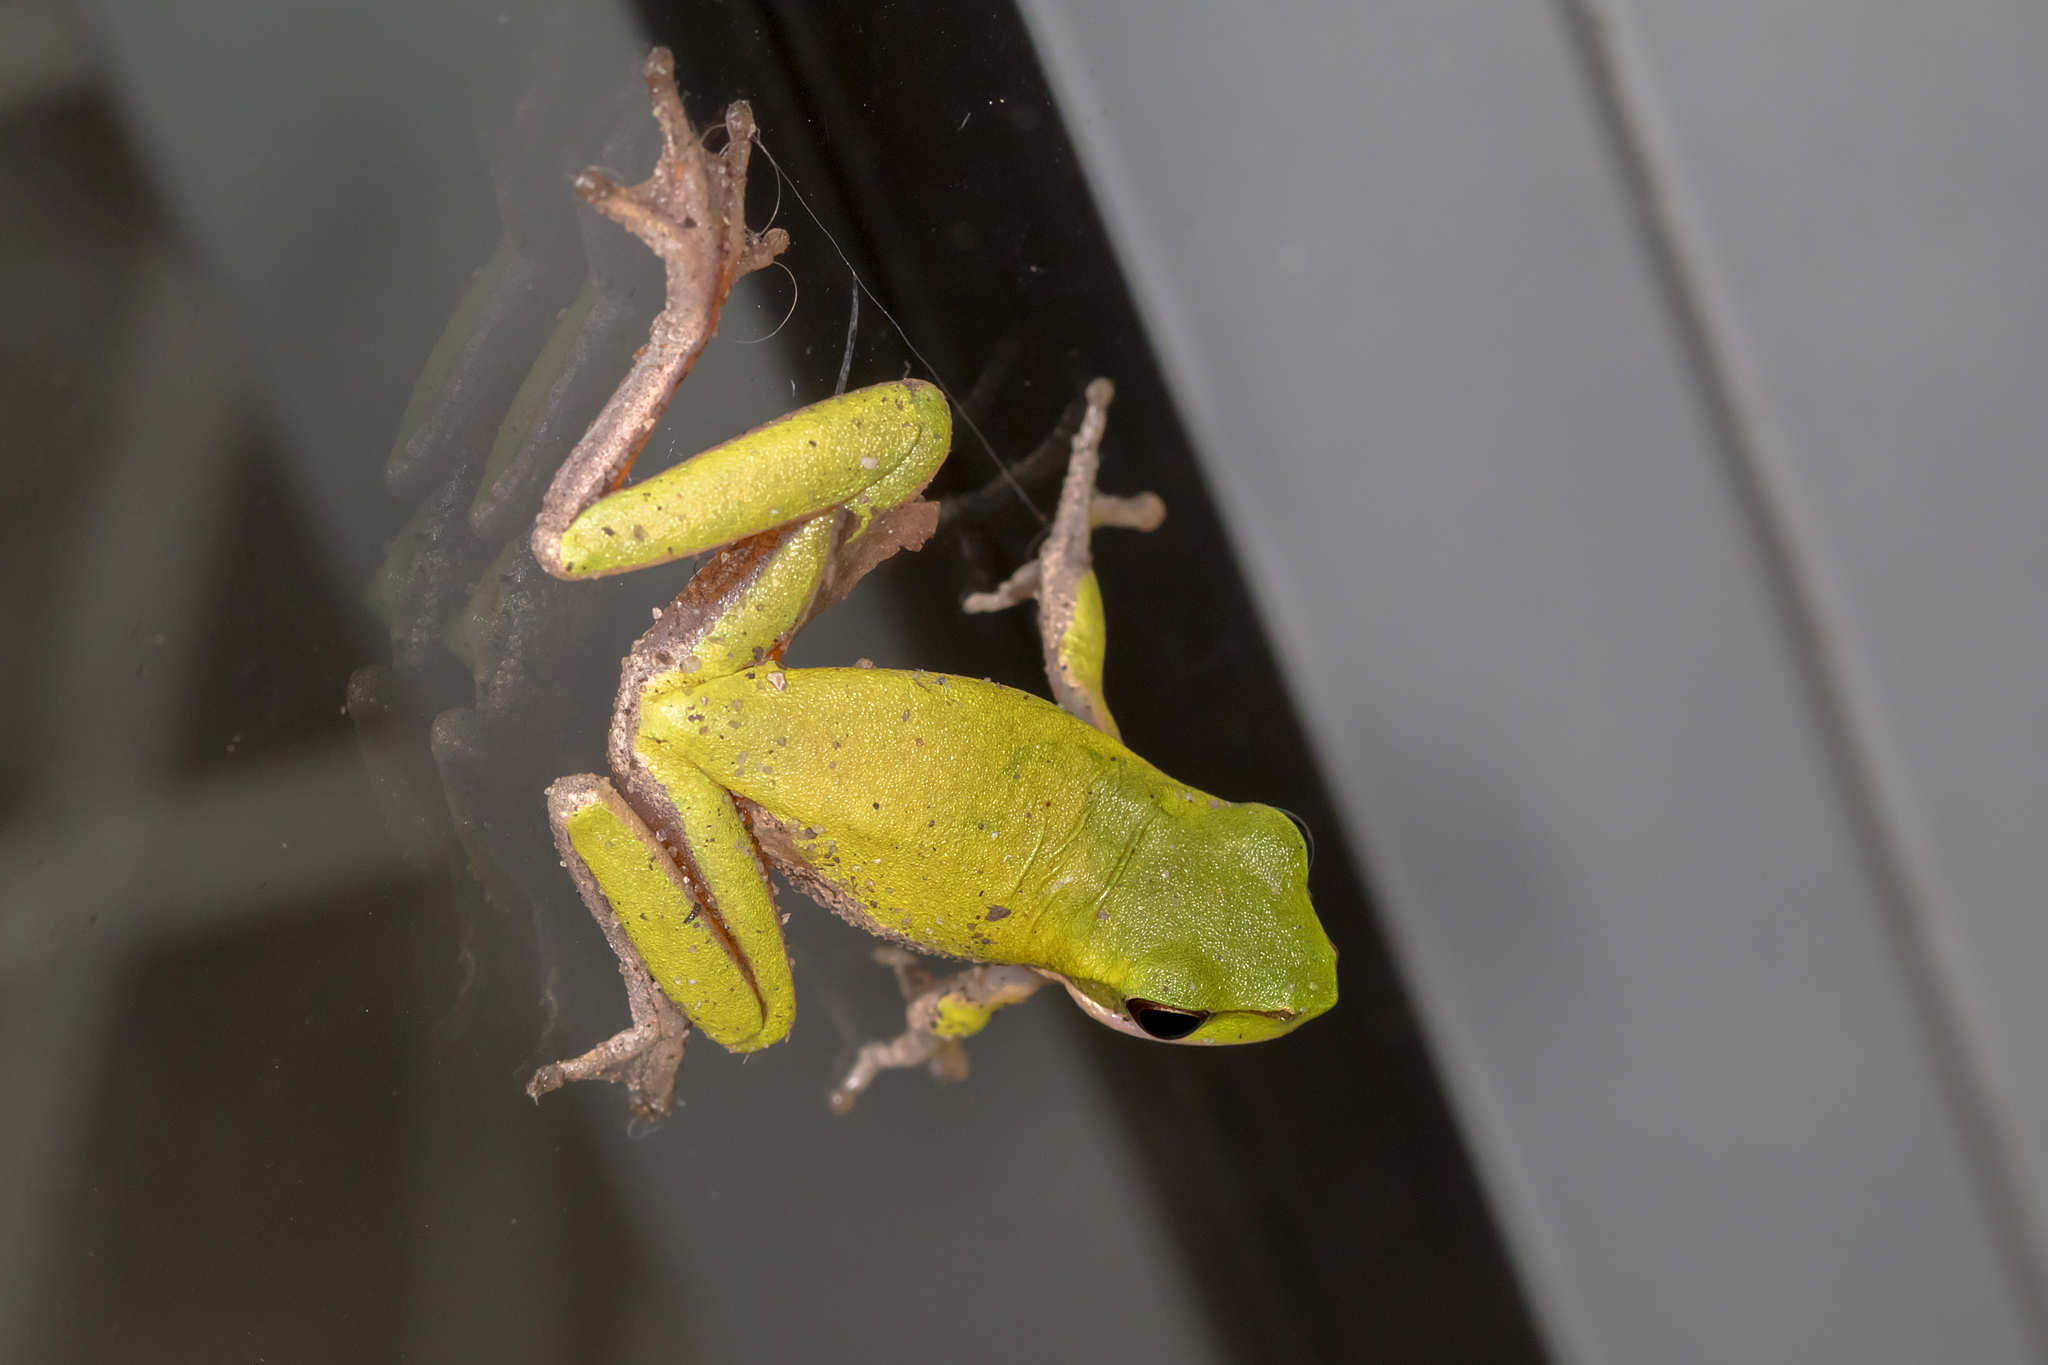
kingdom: Animalia
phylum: Chordata
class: Amphibia
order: Anura
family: Pelodryadidae
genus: Litoria
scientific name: Litoria fallax
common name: Eastern dwarf treefrog
